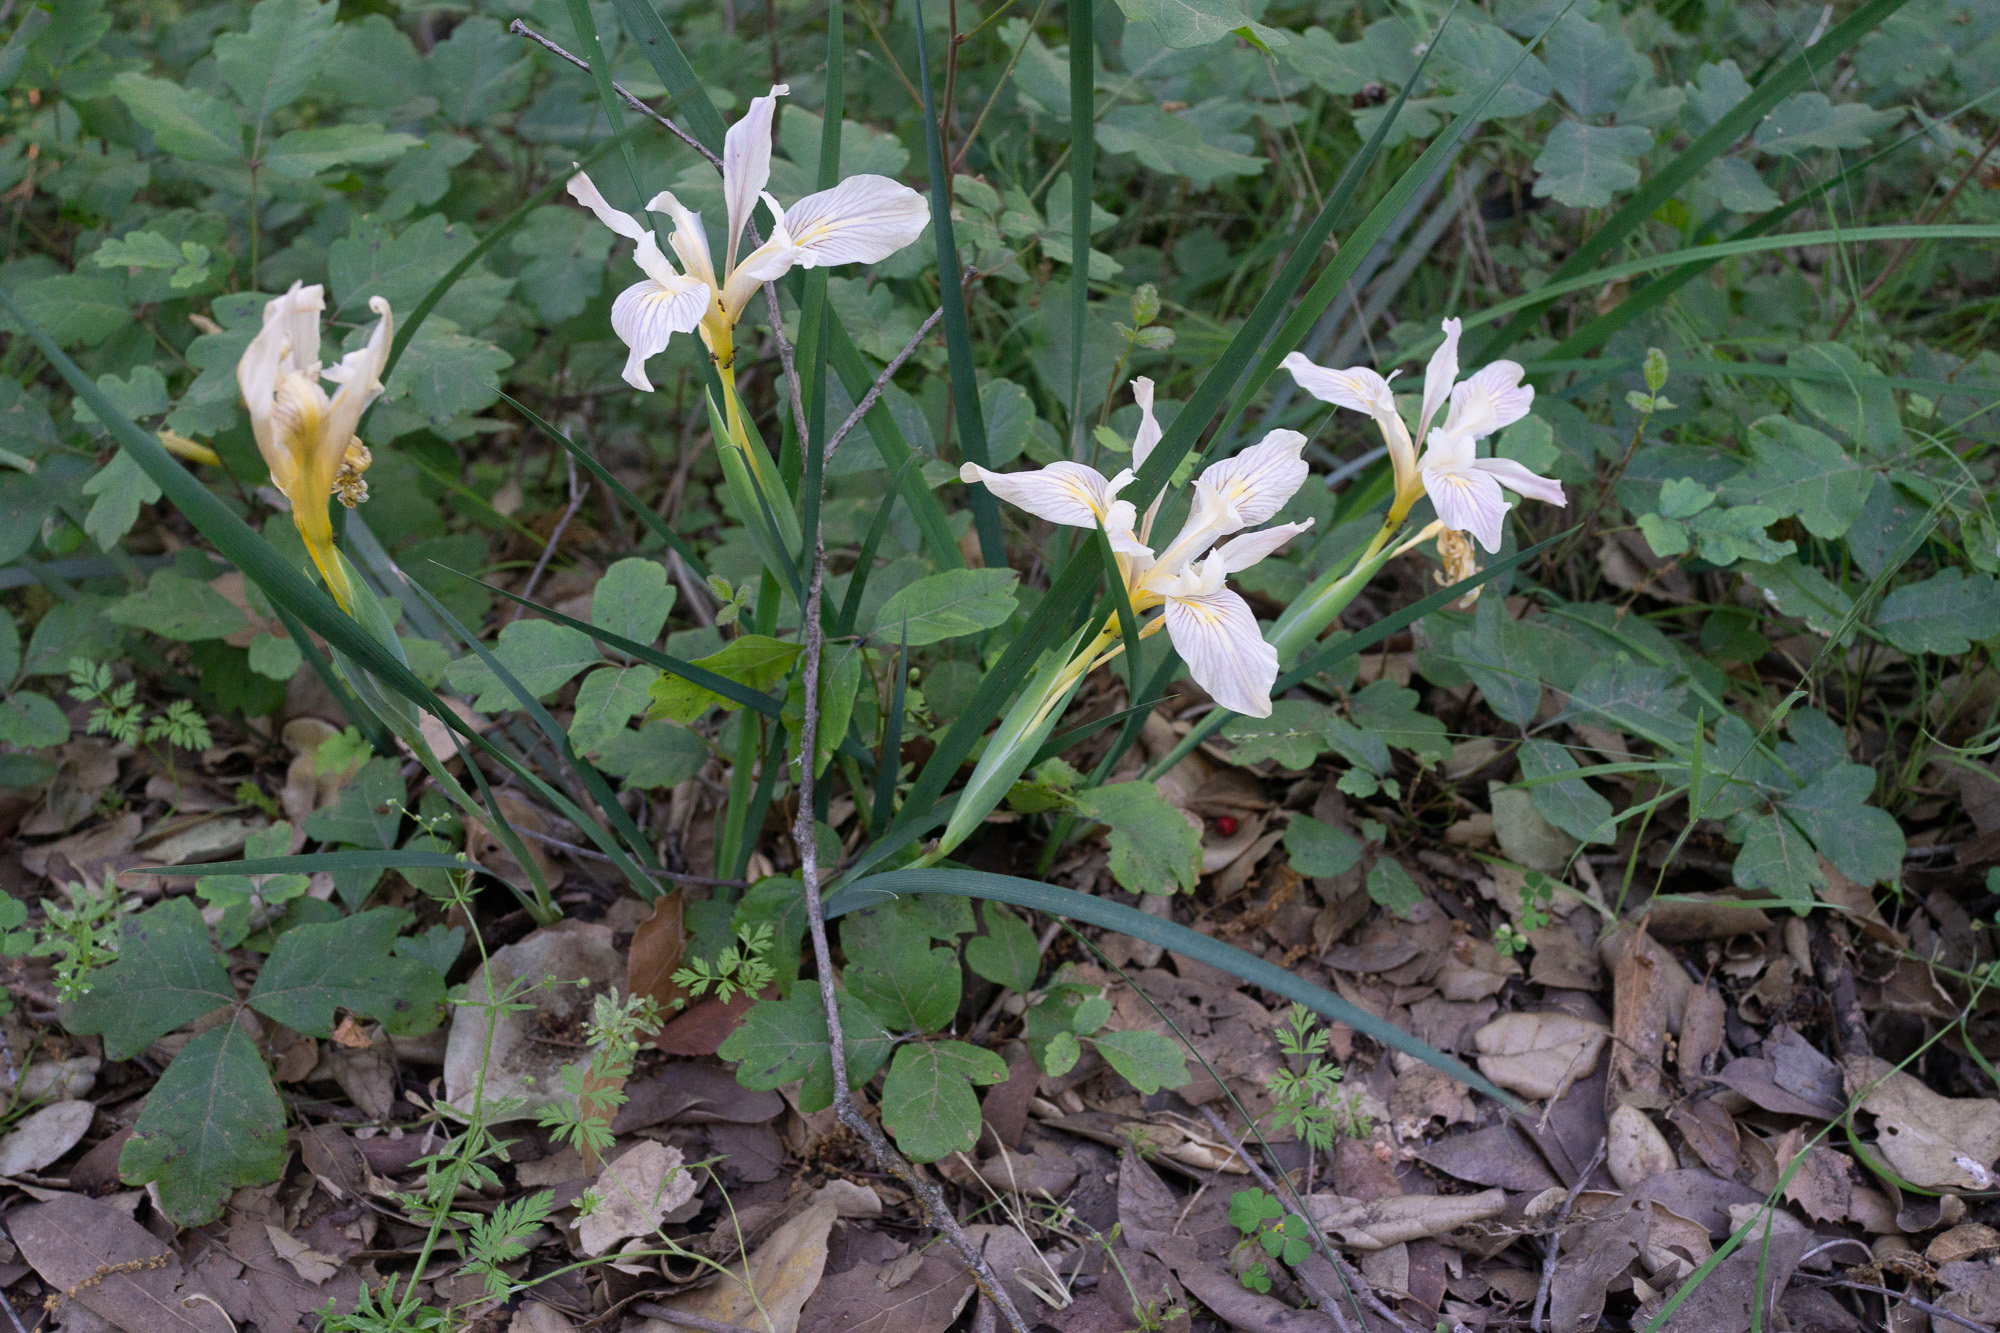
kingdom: Plantae
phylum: Tracheophyta
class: Liliopsida
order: Asparagales
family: Iridaceae
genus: Iris
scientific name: Iris fernaldii
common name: Fernald's iris
